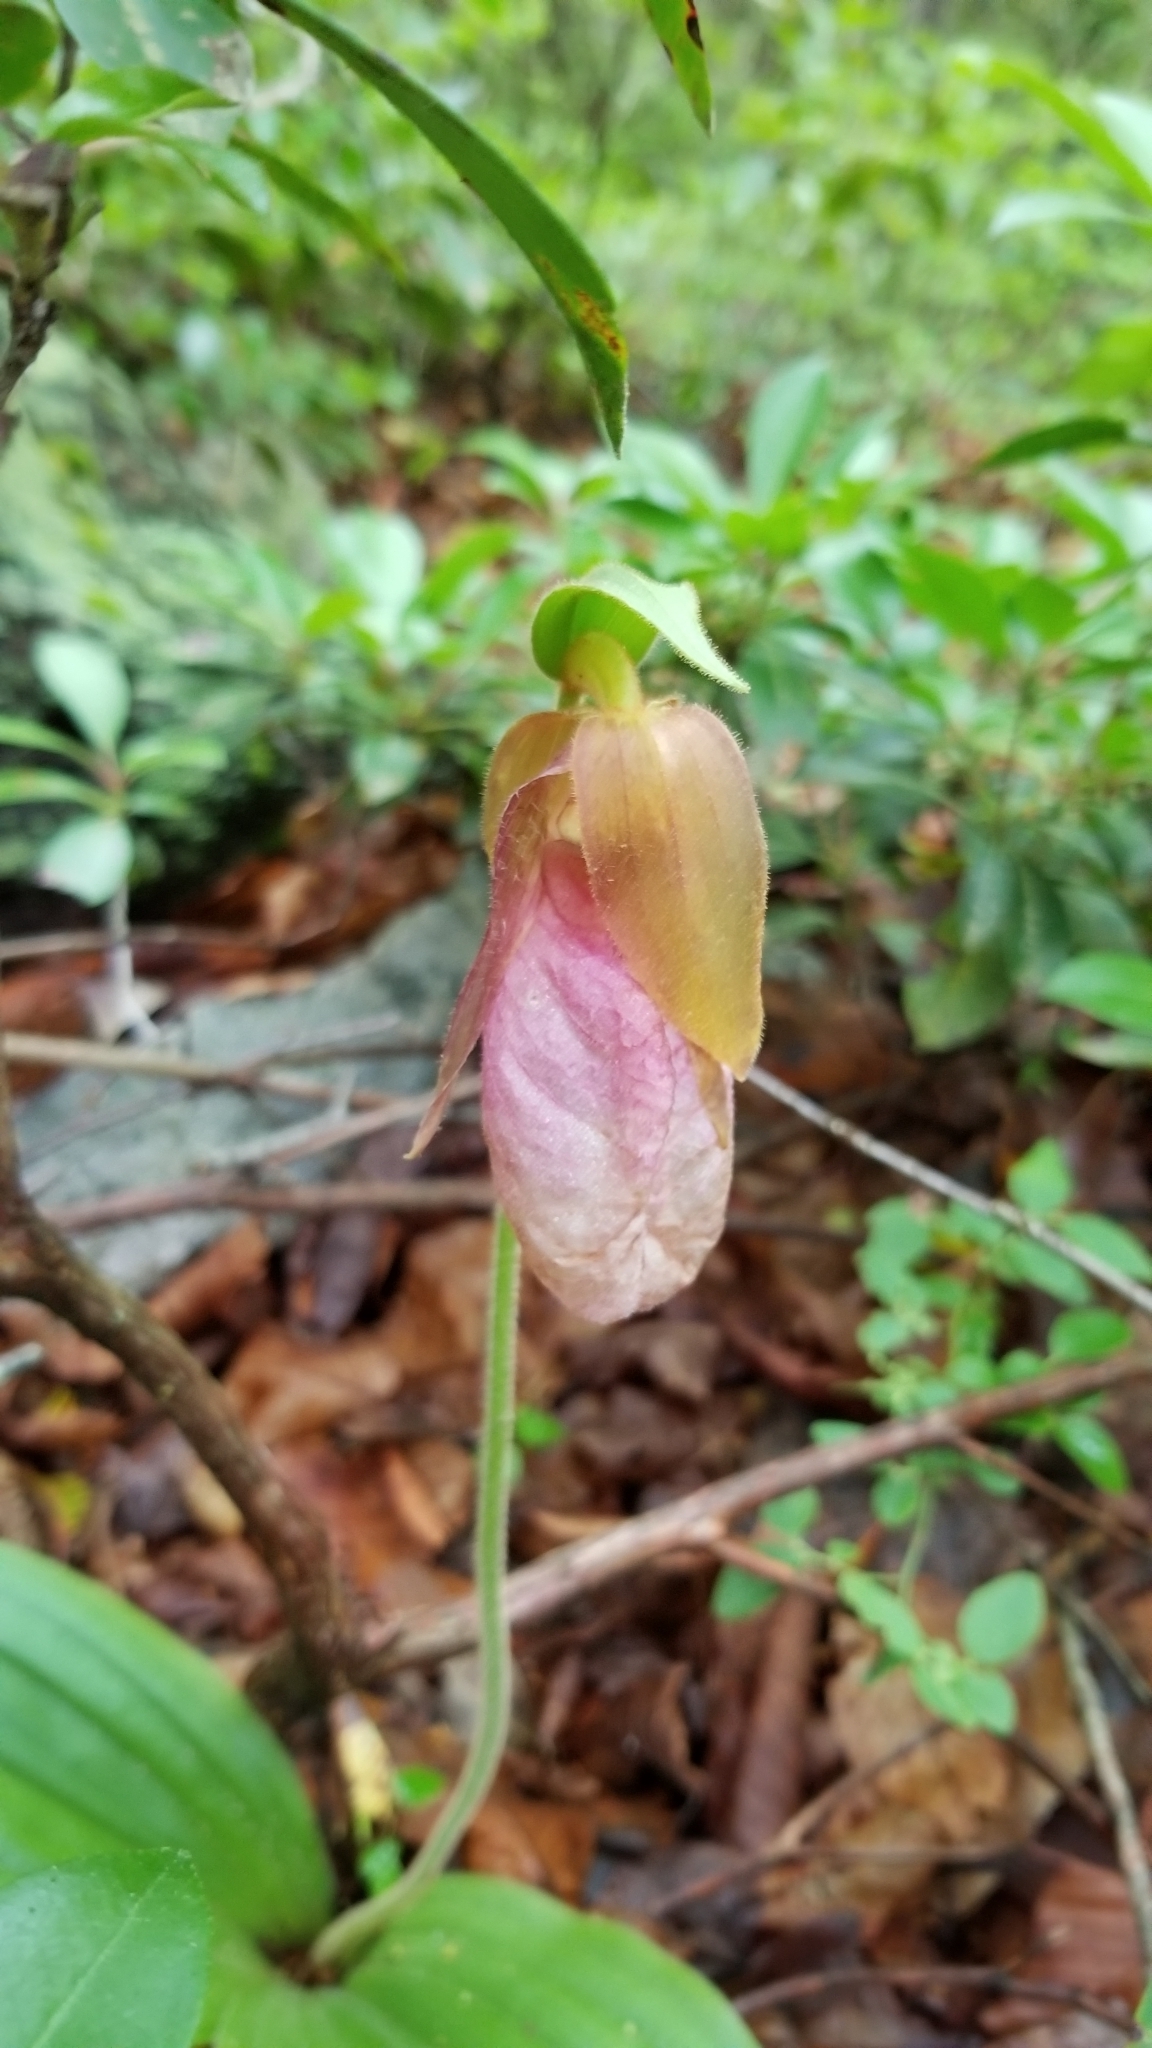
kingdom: Plantae
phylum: Tracheophyta
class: Liliopsida
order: Asparagales
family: Orchidaceae
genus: Cypripedium
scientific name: Cypripedium acaule
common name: Pink lady's-slipper
